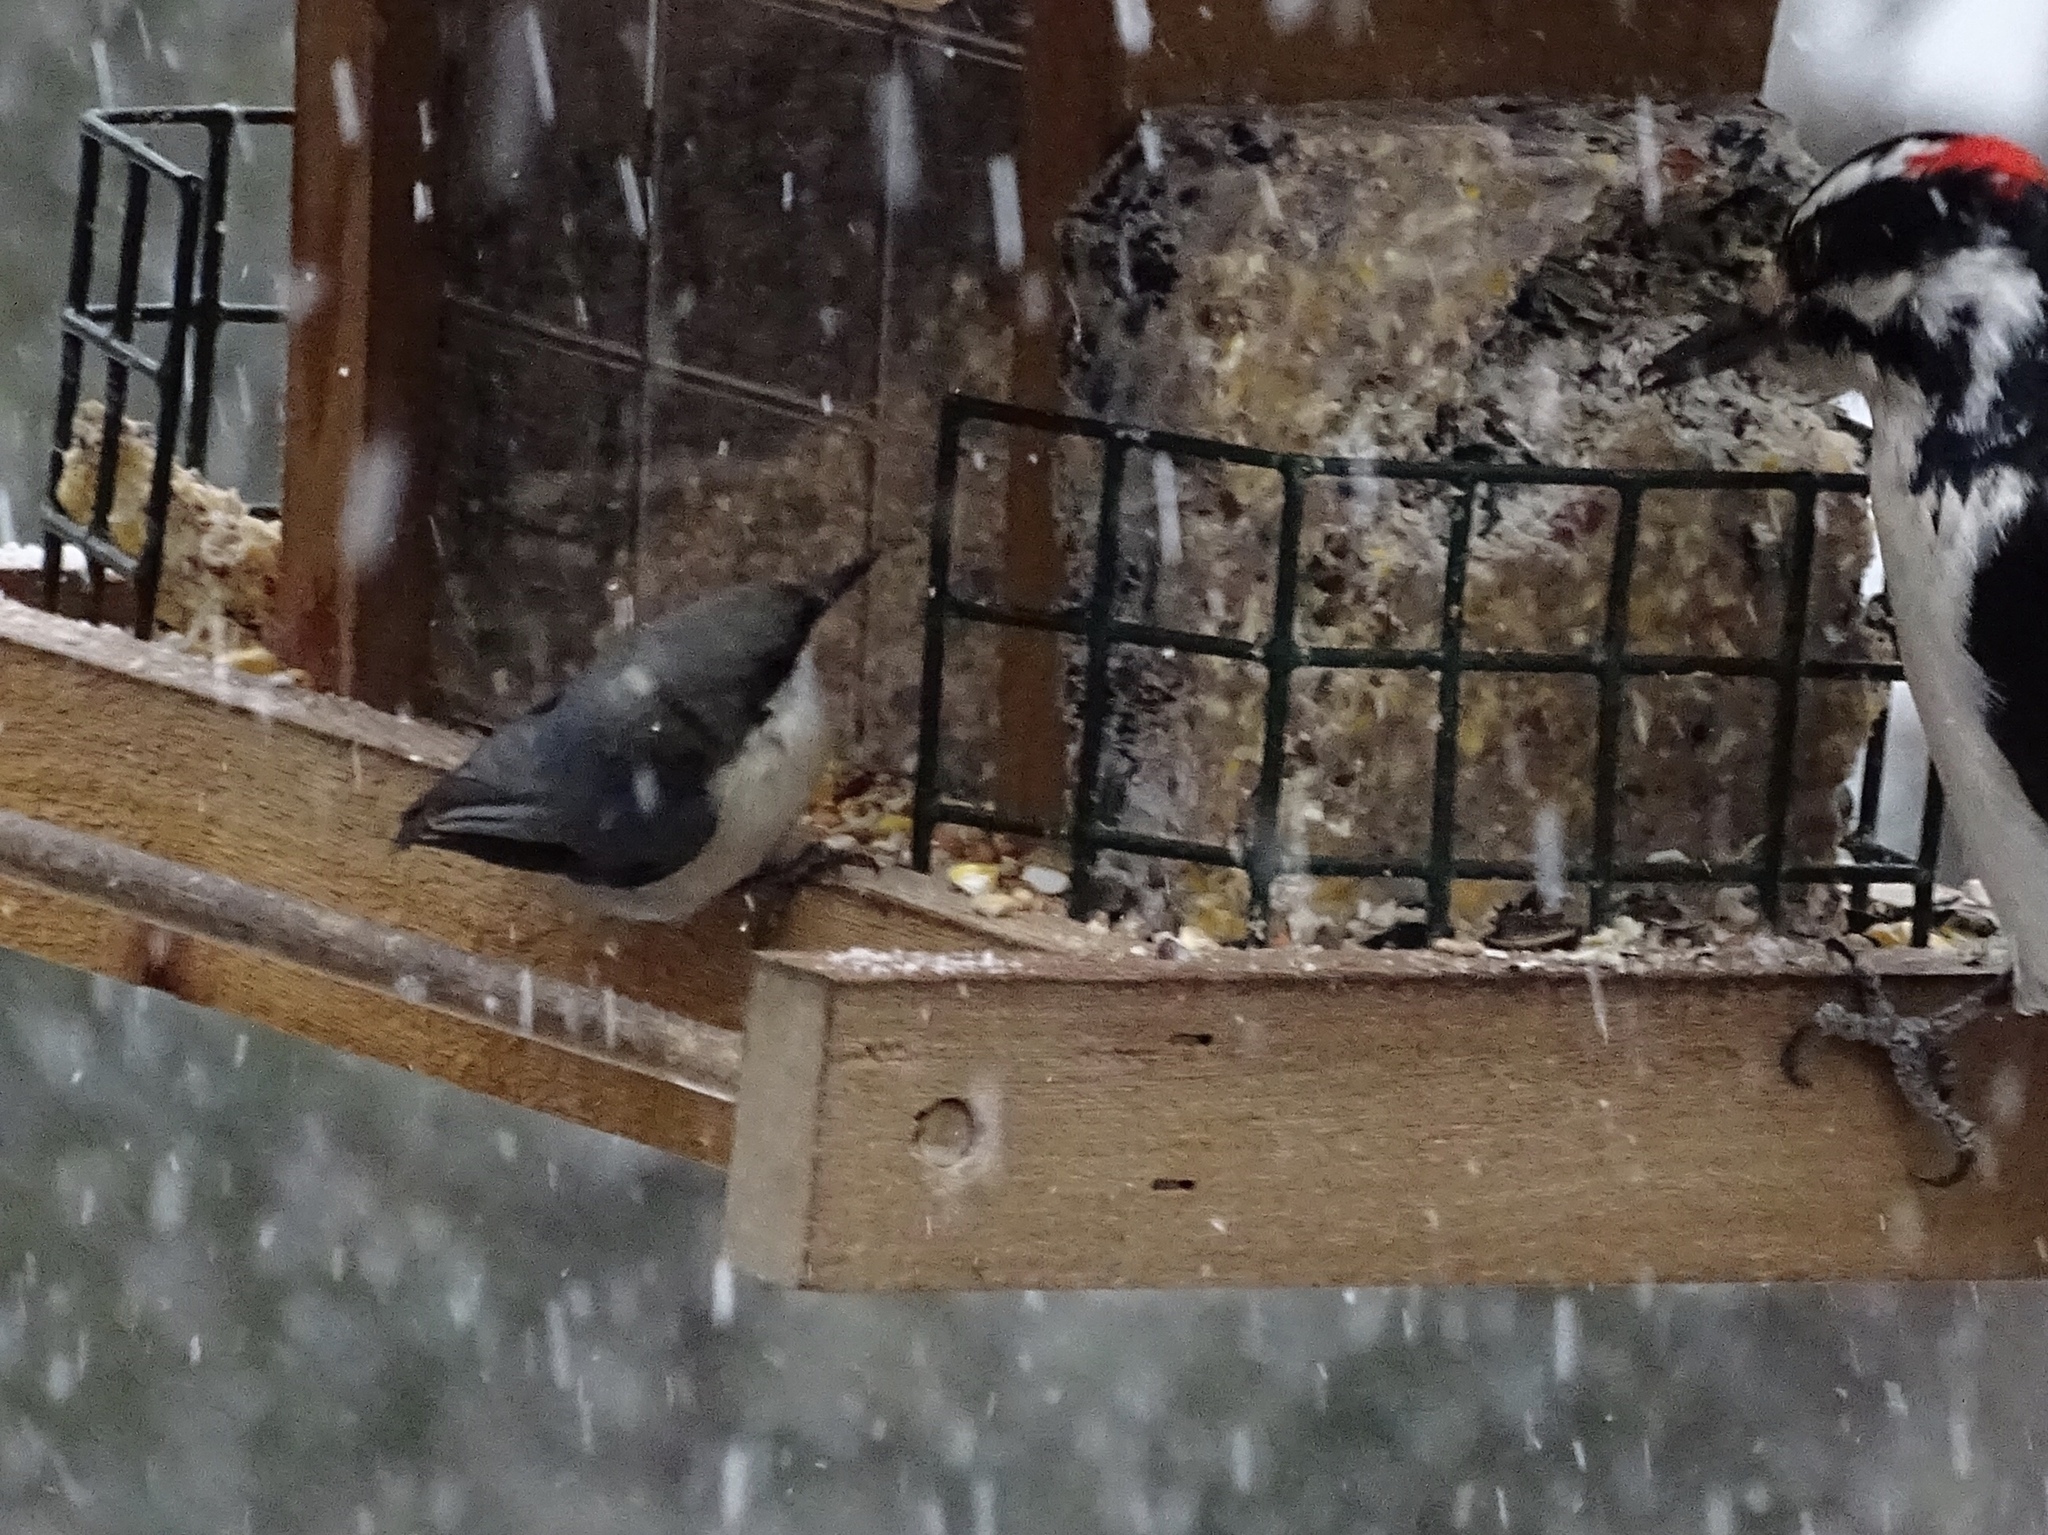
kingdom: Animalia
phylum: Chordata
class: Aves
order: Passeriformes
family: Sittidae
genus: Sitta
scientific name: Sitta pygmaea
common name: Pygmy nuthatch
